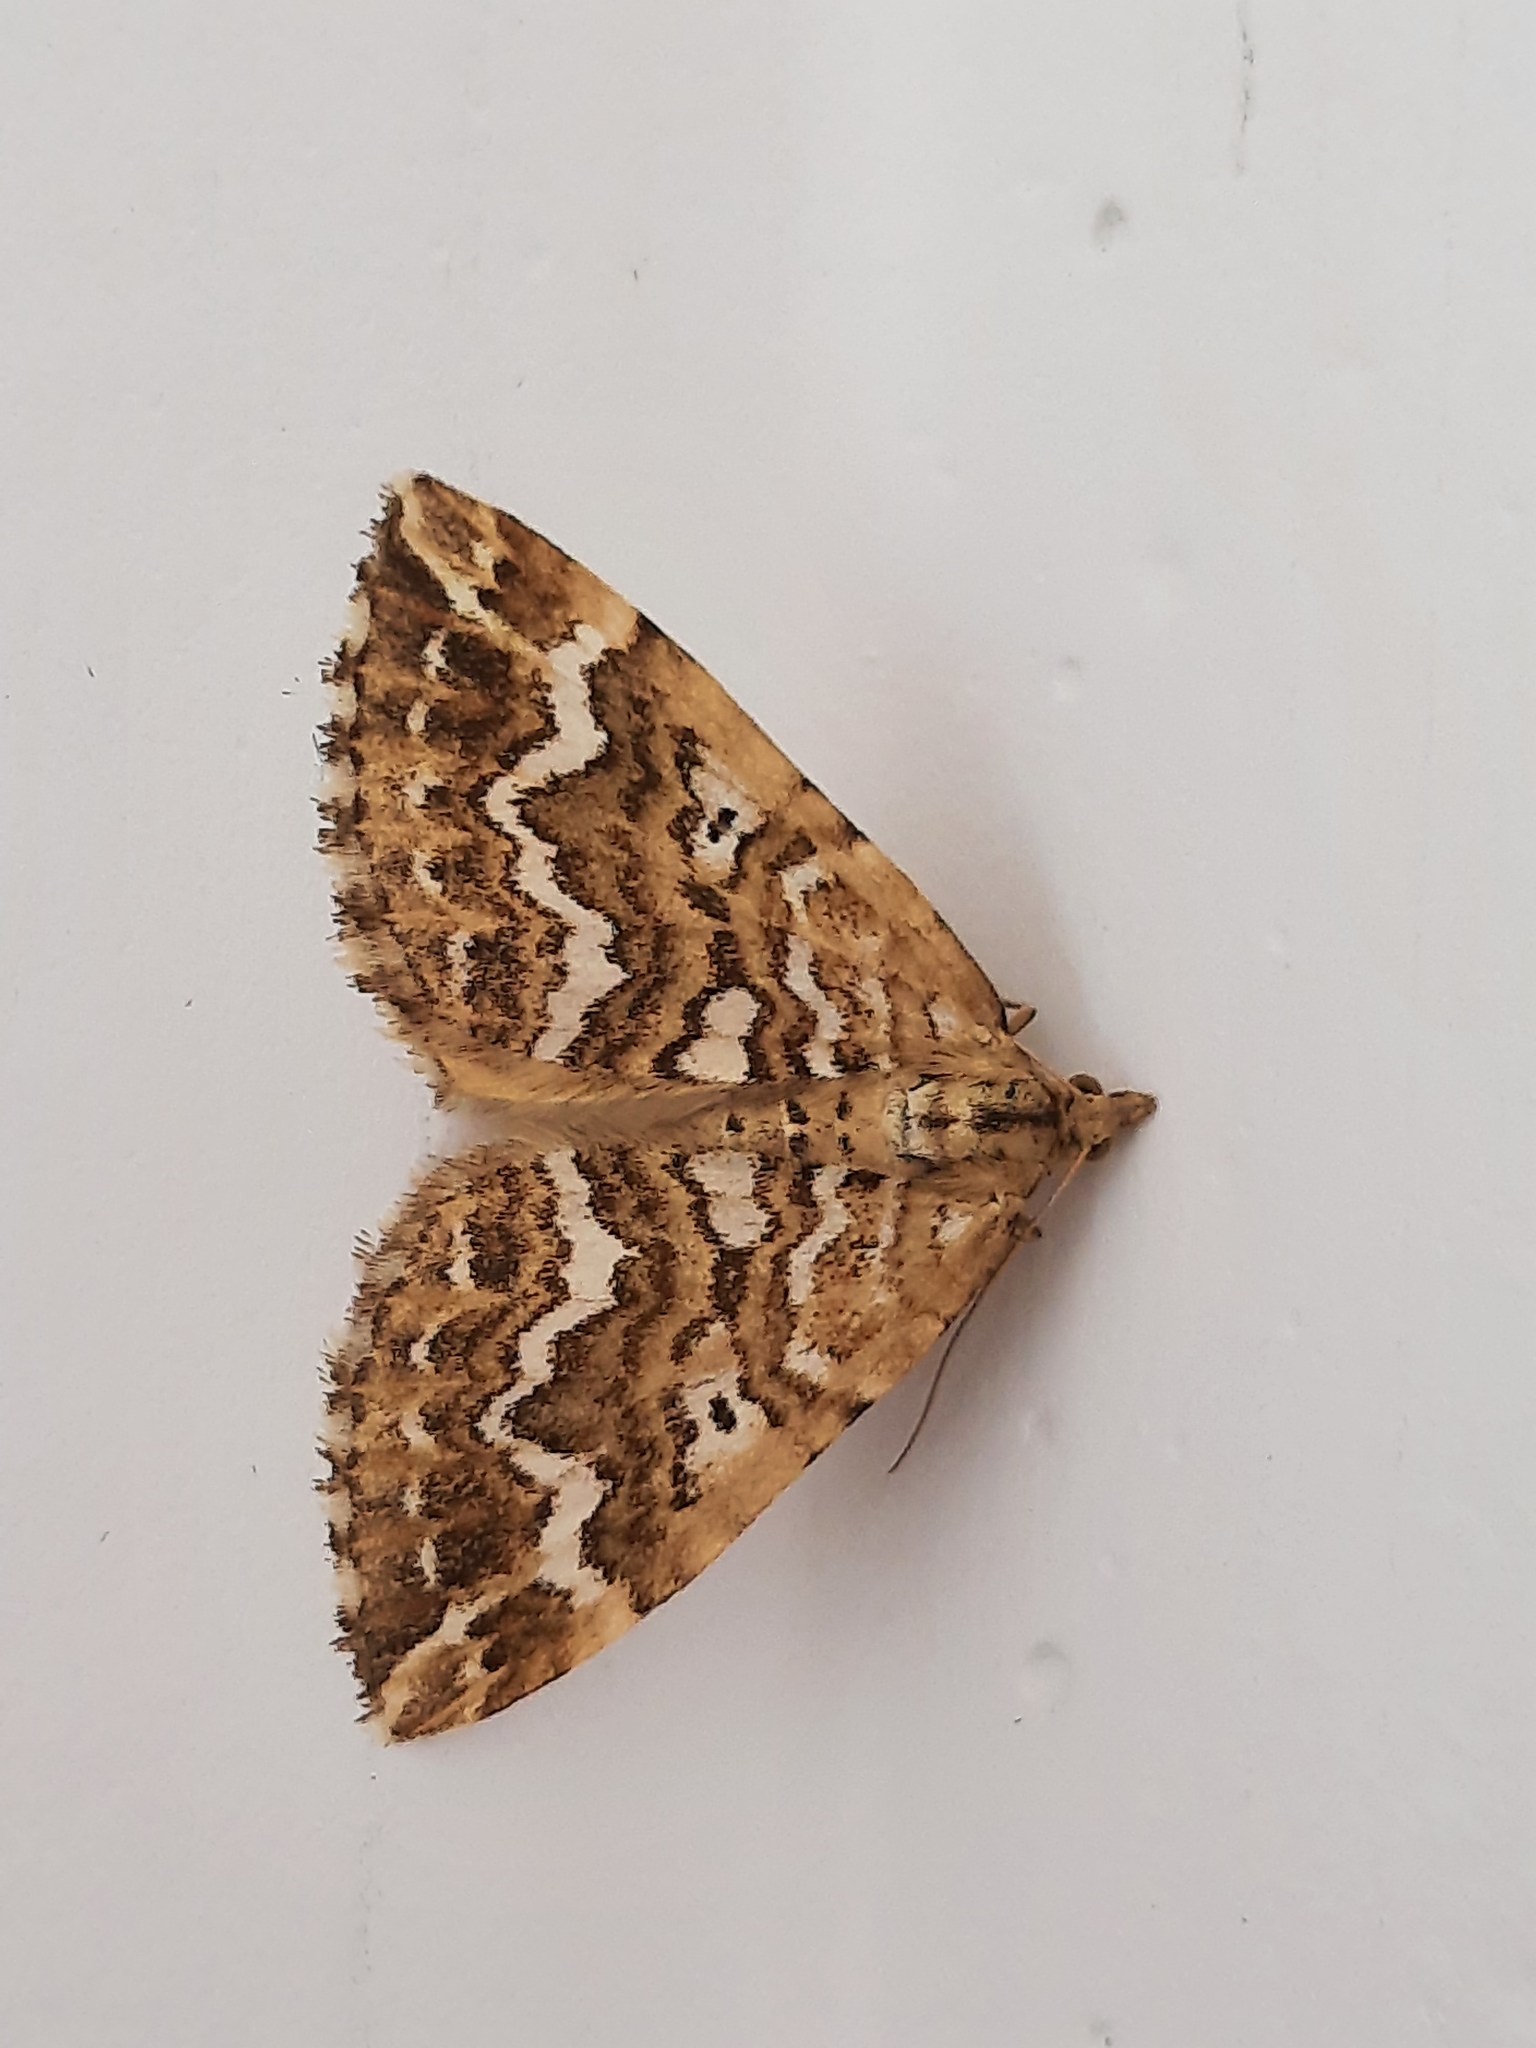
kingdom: Animalia
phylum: Arthropoda
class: Insecta
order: Lepidoptera
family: Geometridae
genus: Asaphodes
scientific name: Asaphodes clarata
